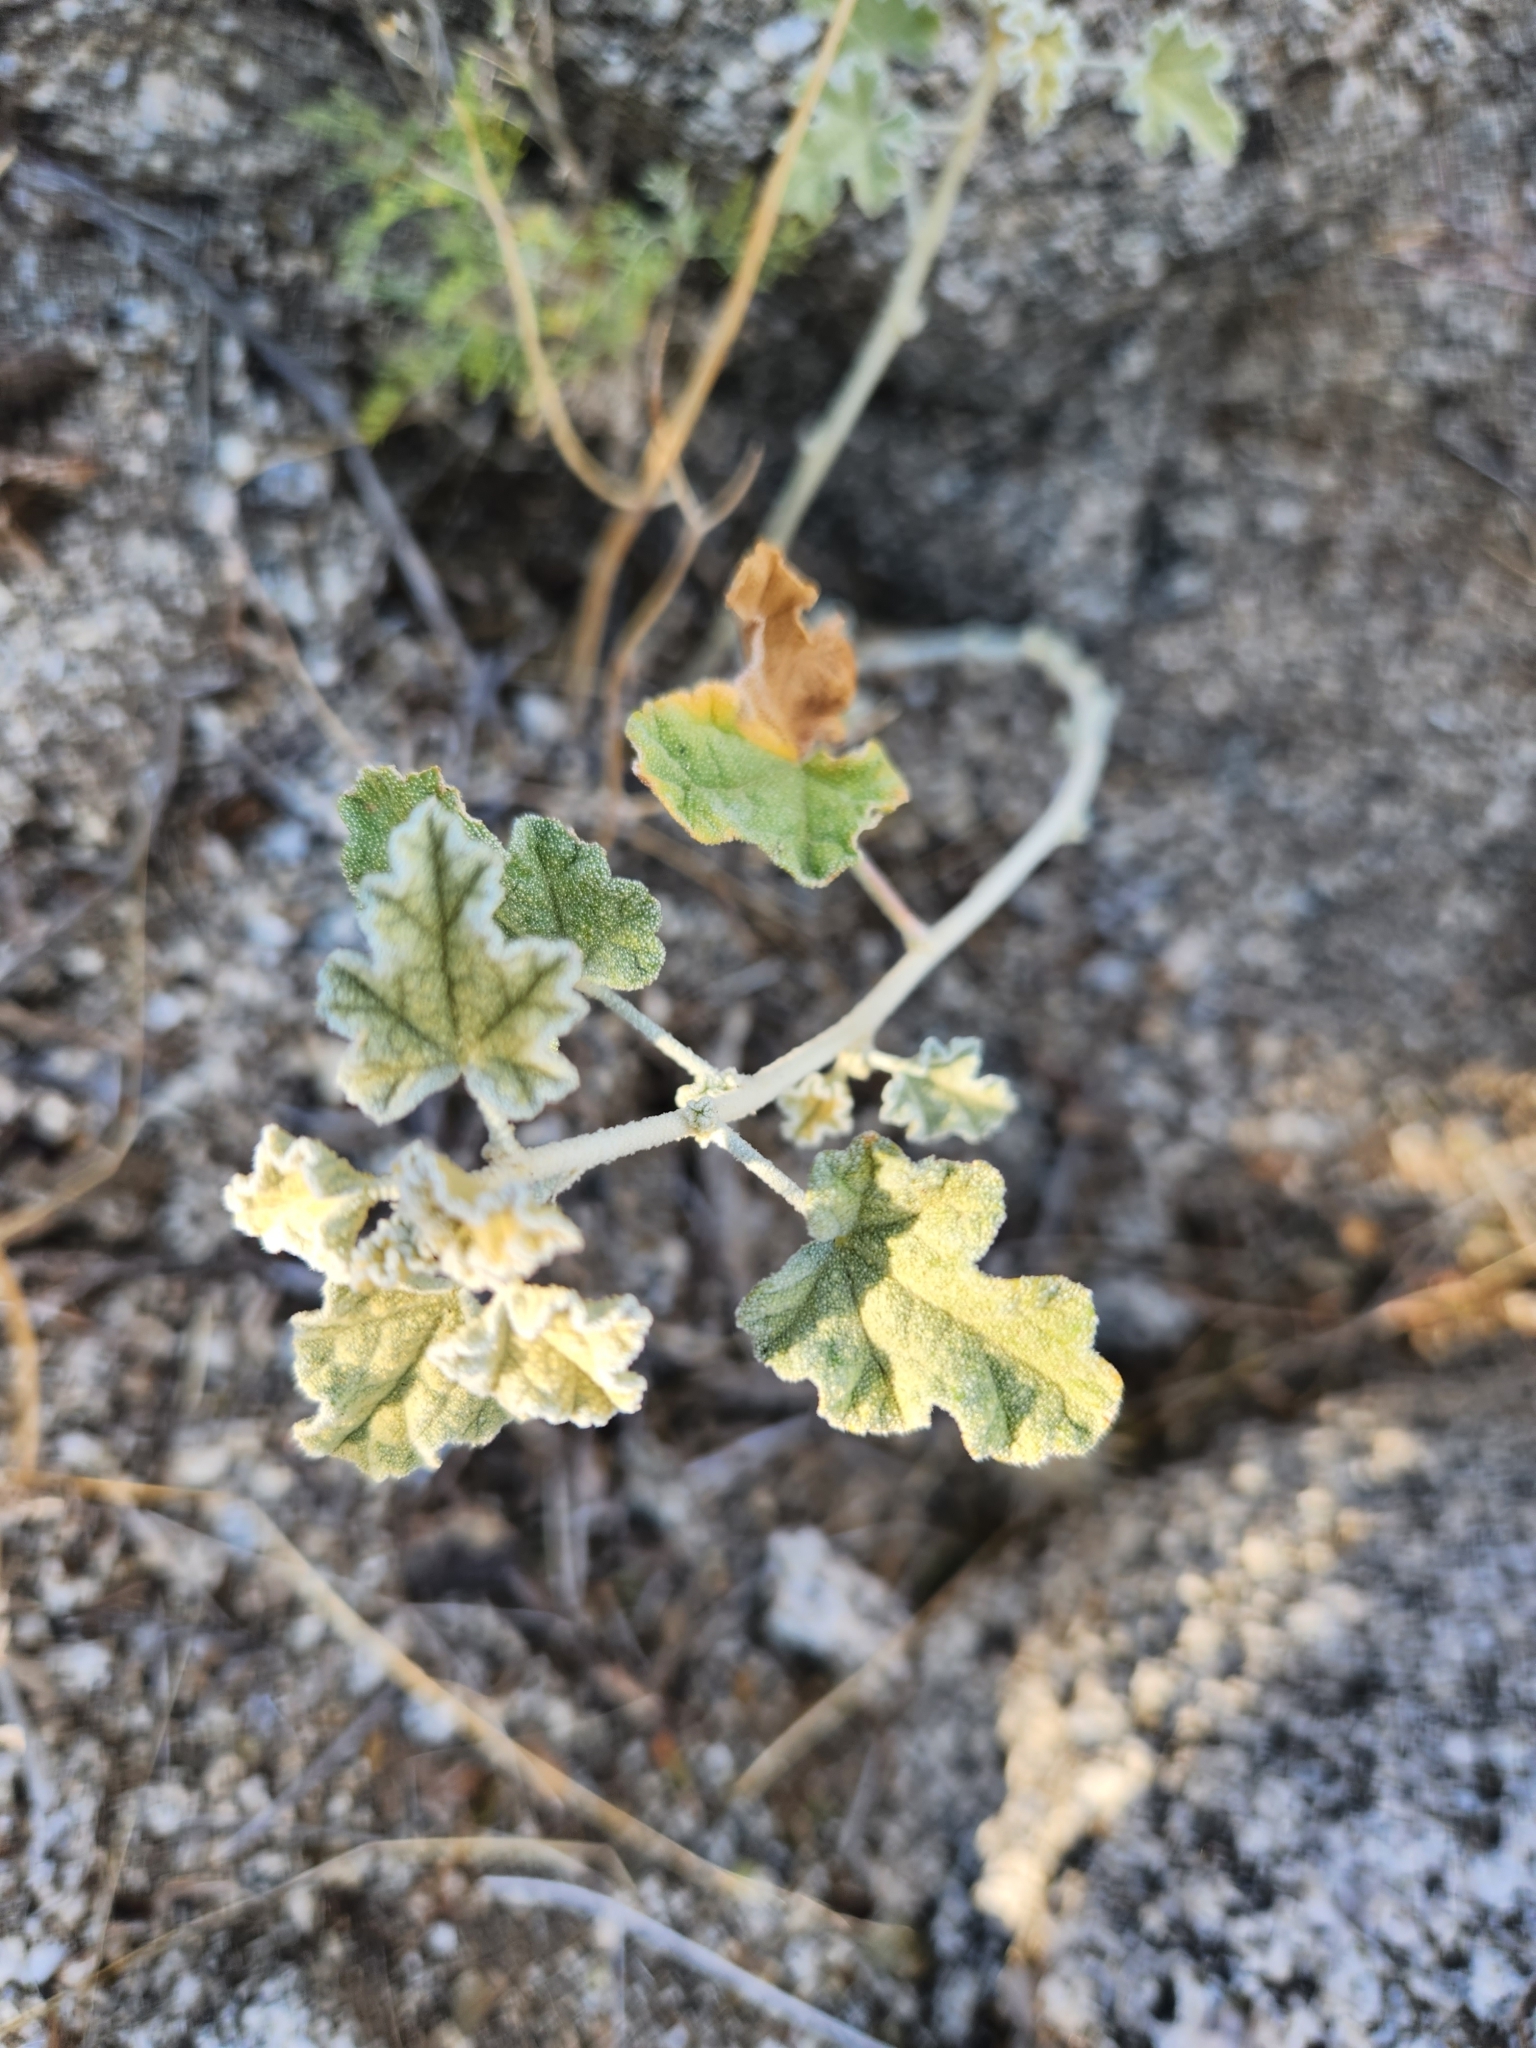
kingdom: Plantae
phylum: Tracheophyta
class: Magnoliopsida
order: Malvales
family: Malvaceae
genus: Sphaeralcea
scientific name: Sphaeralcea ambigua
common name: Apricot globe-mallow
